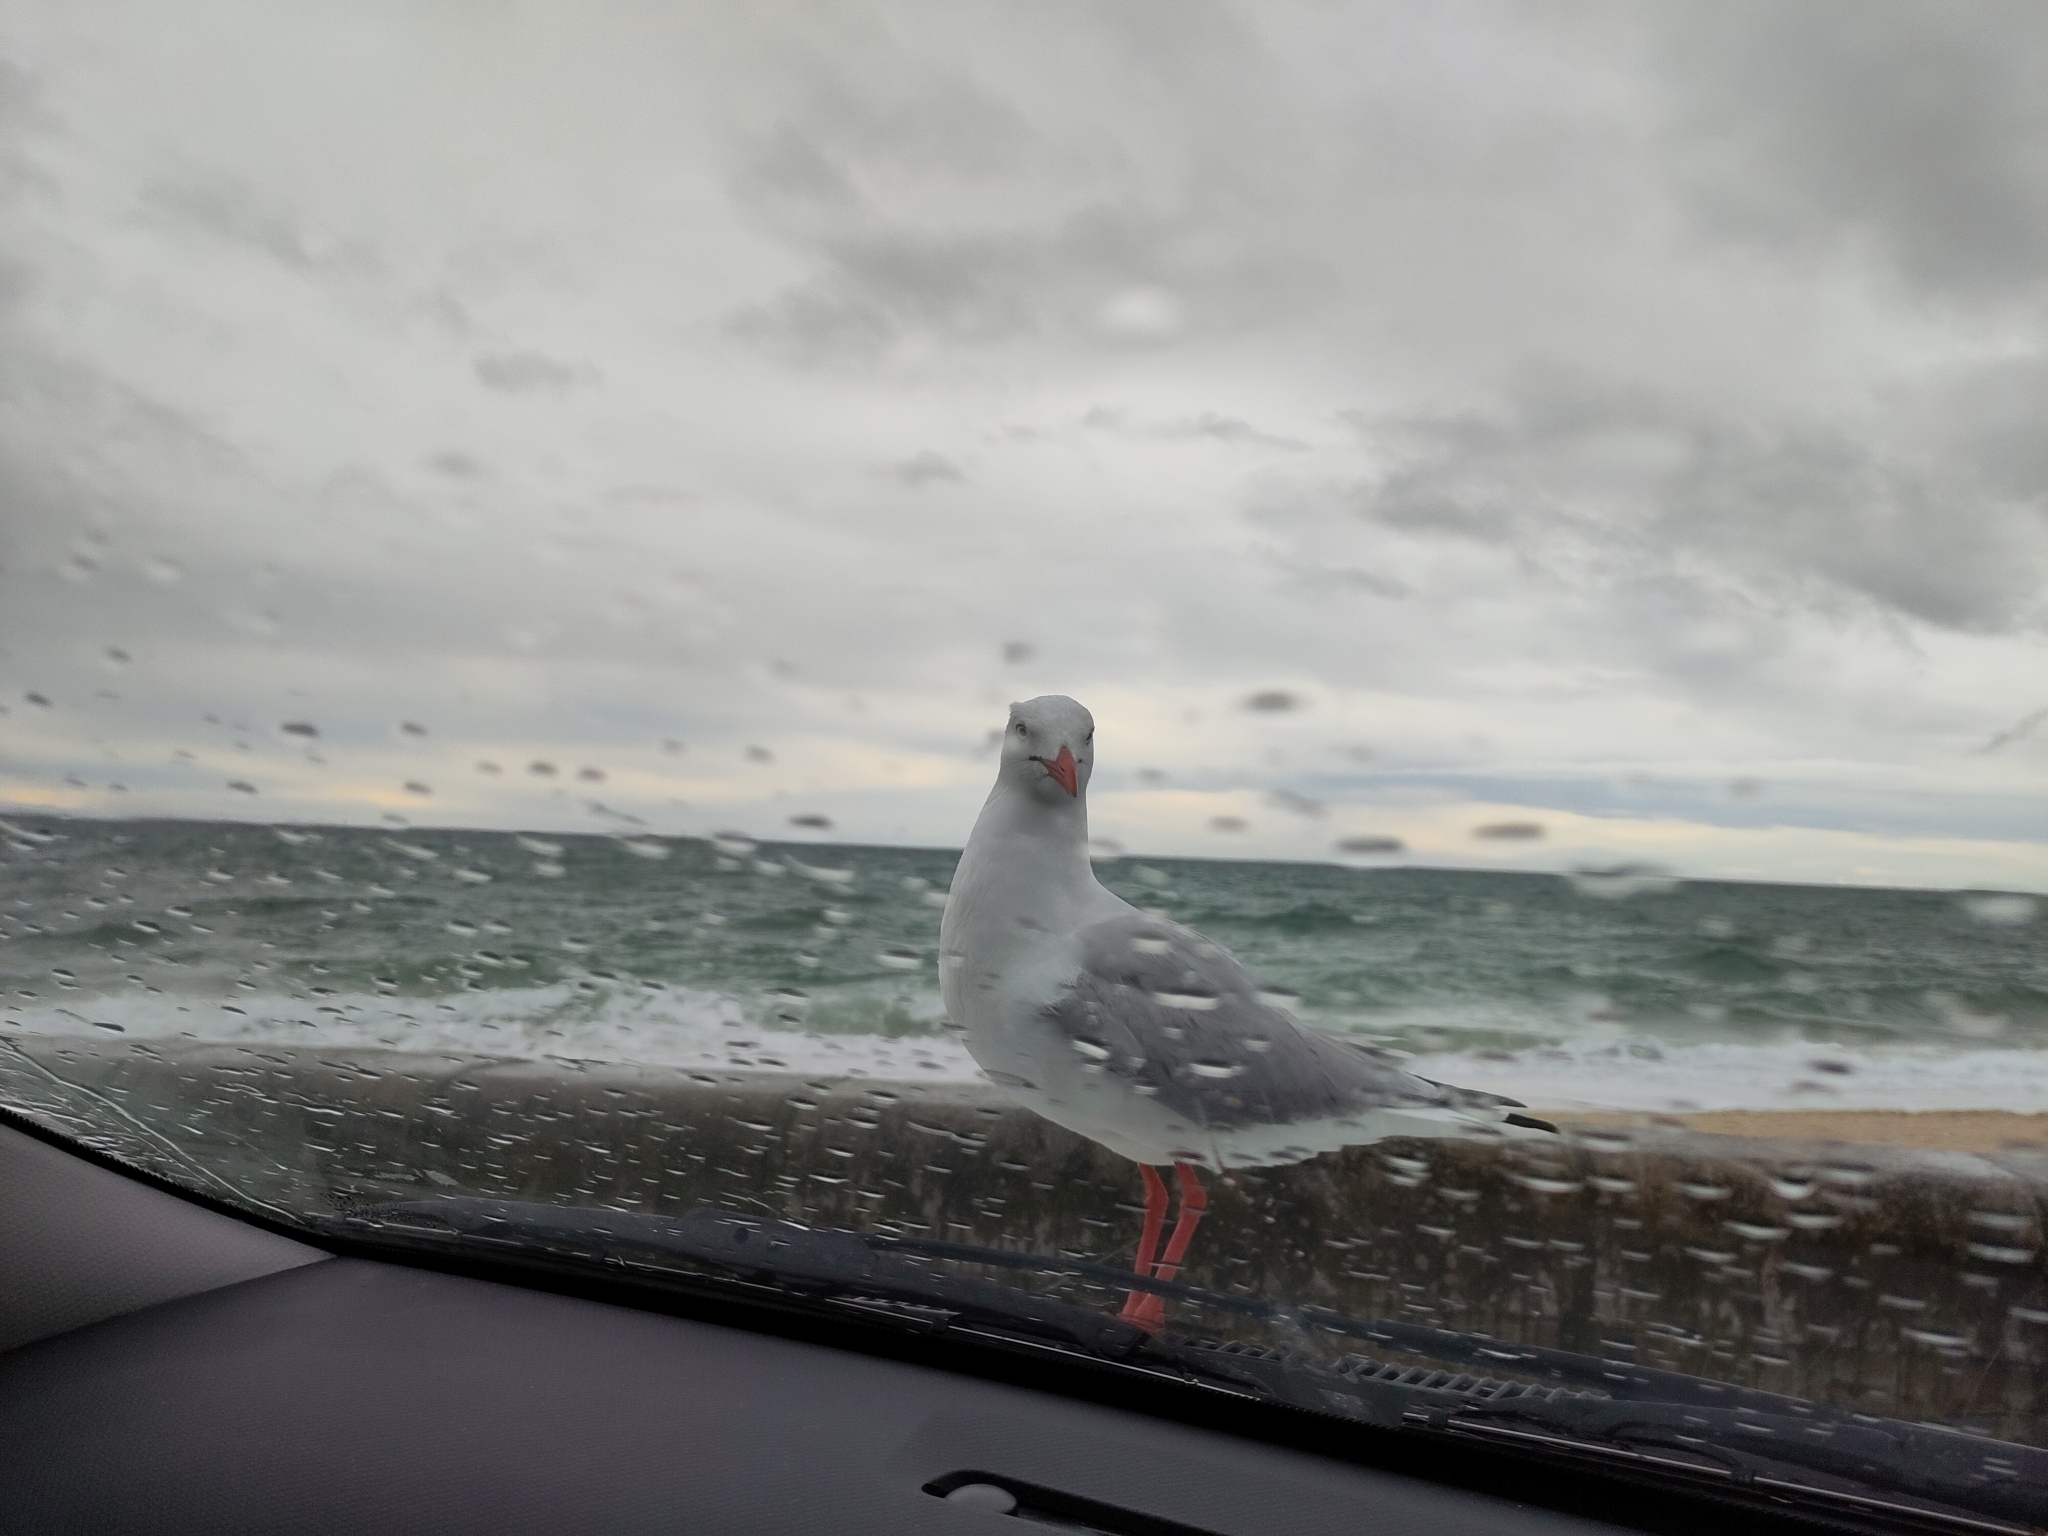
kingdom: Animalia
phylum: Chordata
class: Aves
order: Charadriiformes
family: Laridae
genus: Chroicocephalus
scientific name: Chroicocephalus novaehollandiae
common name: Silver gull
